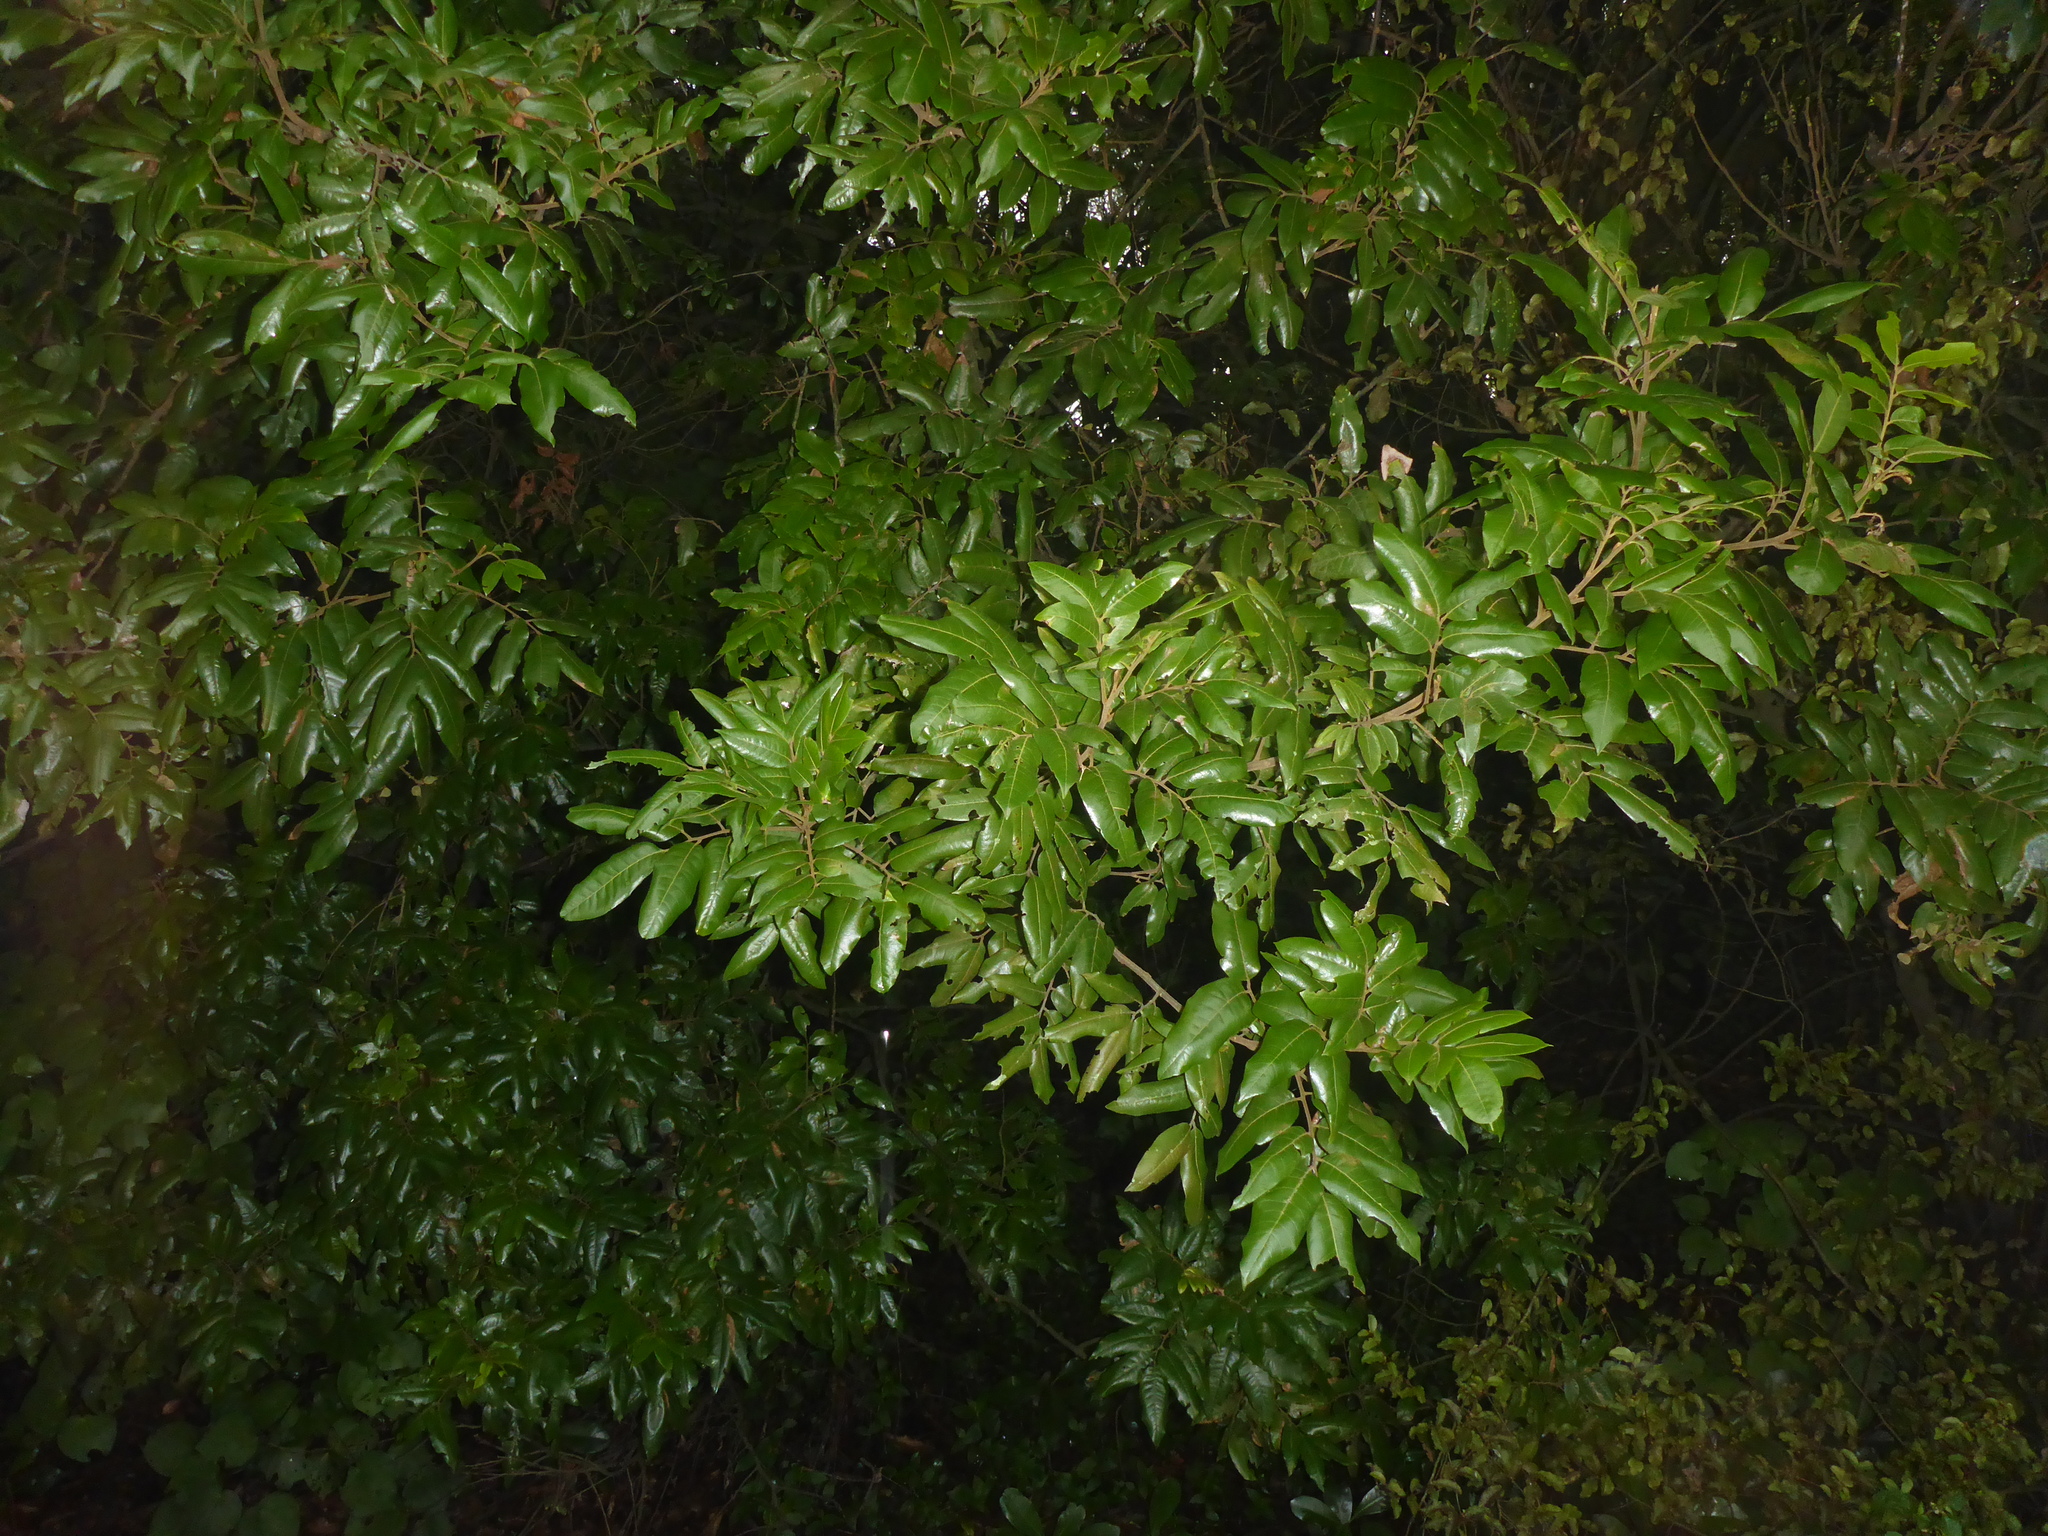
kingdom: Plantae
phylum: Tracheophyta
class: Magnoliopsida
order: Sapindales
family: Sapindaceae
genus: Alectryon
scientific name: Alectryon excelsus
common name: Three kings titoki
